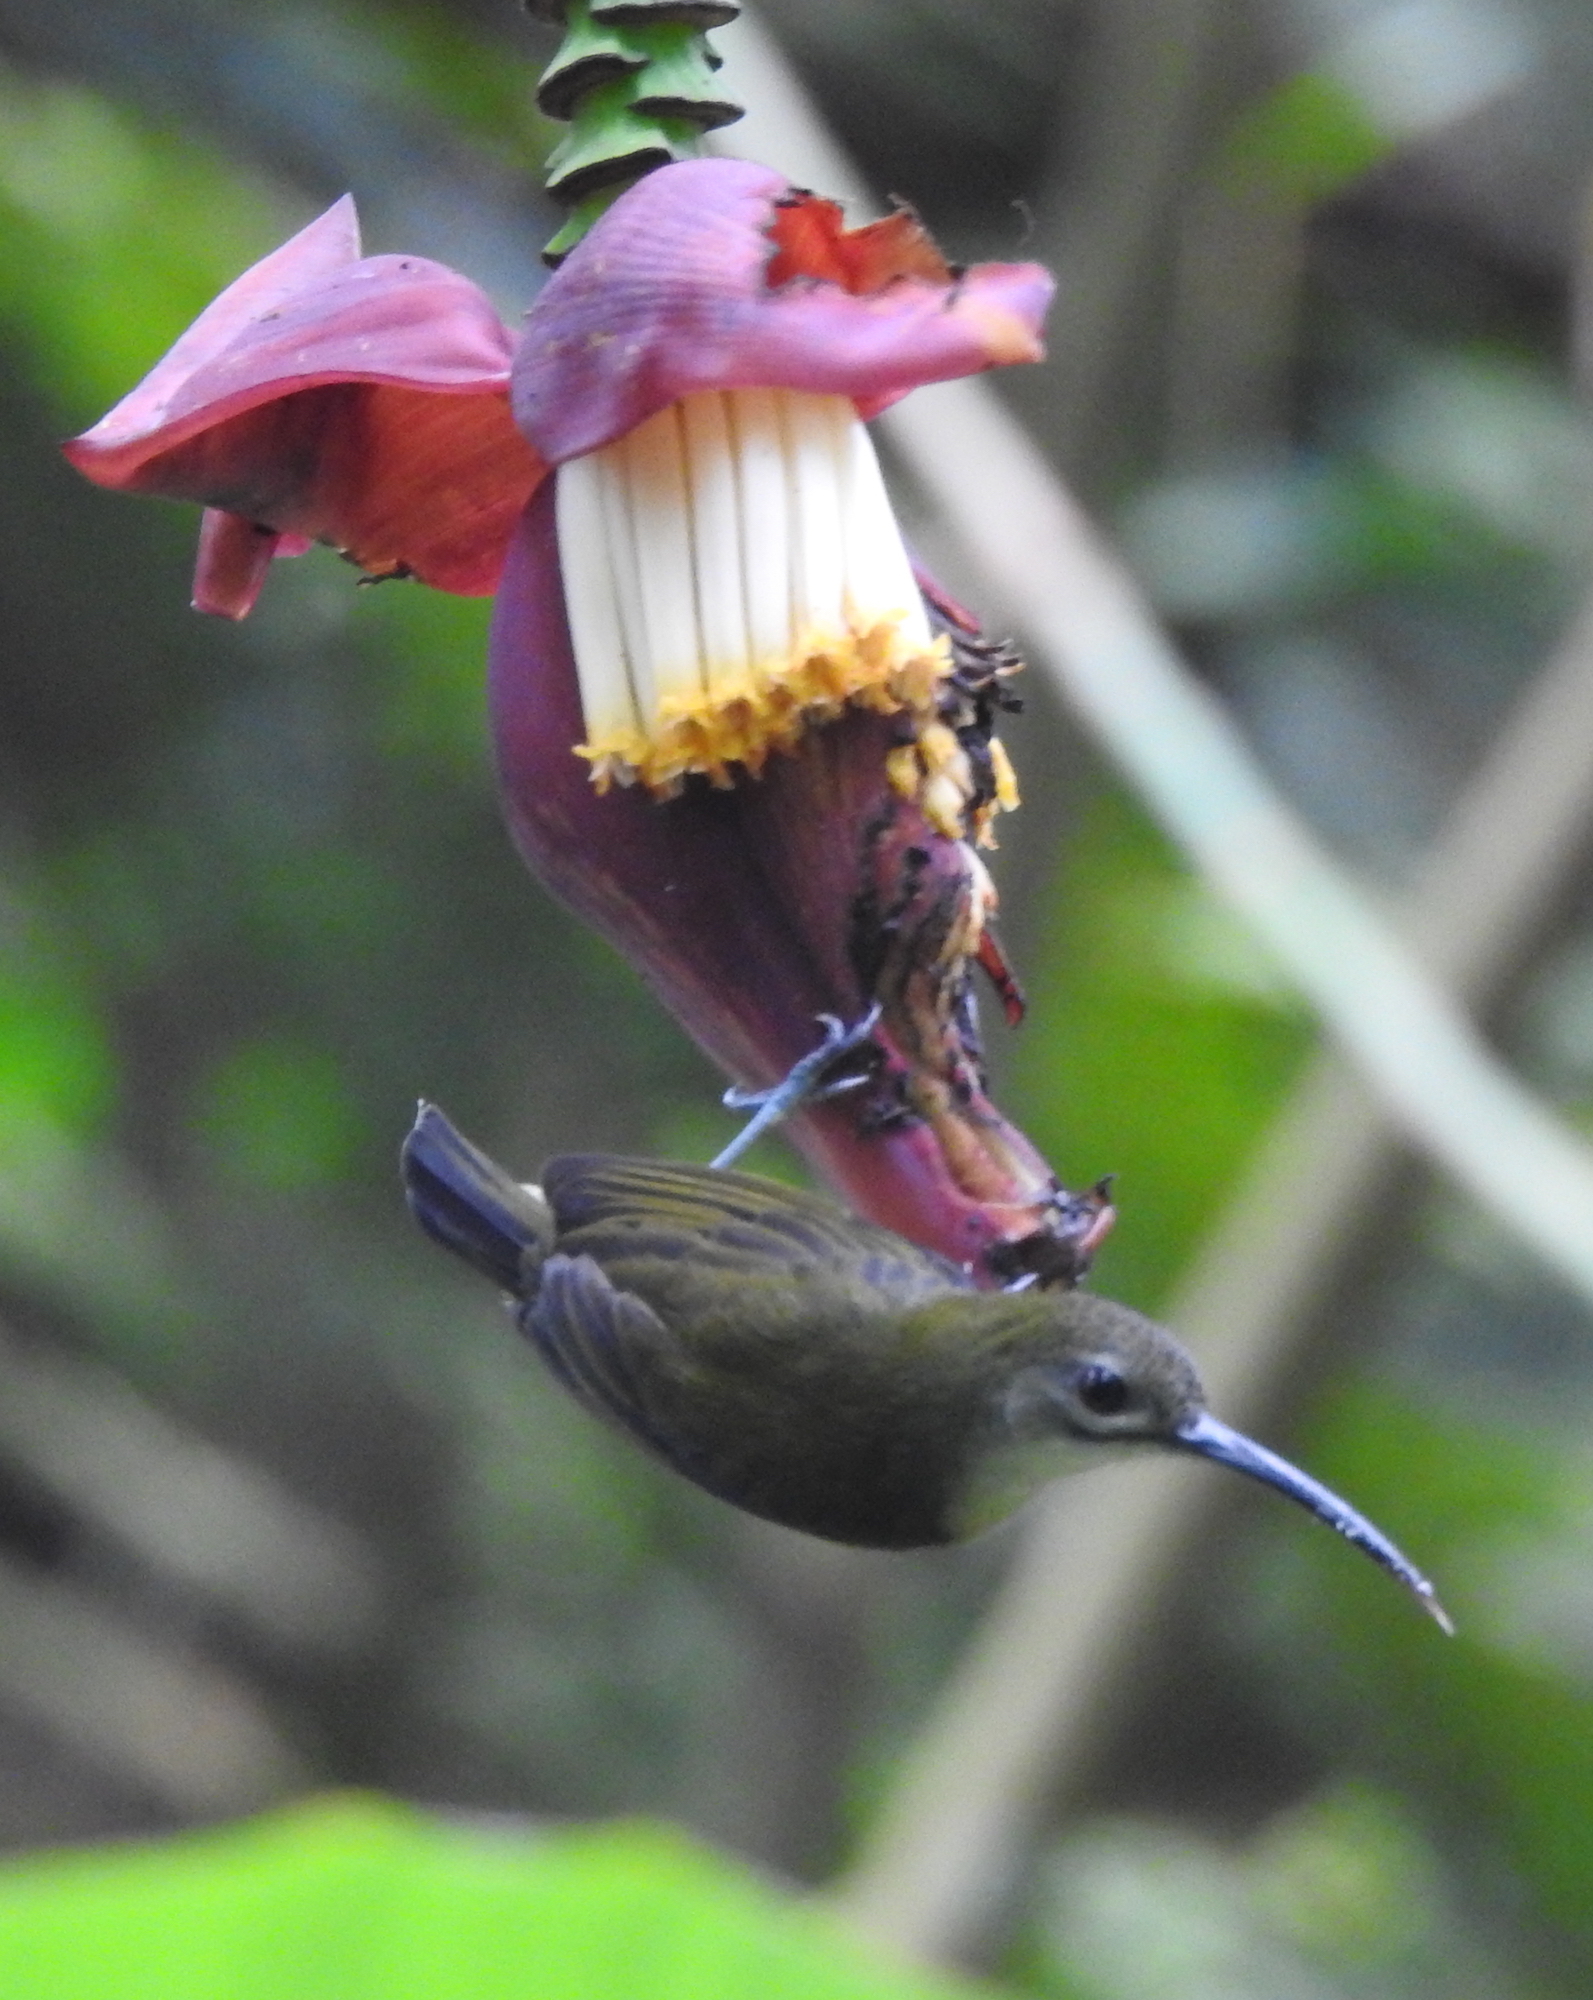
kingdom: Animalia
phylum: Chordata
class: Aves
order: Passeriformes
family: Nectariniidae
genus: Arachnothera
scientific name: Arachnothera longirostra
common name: Little spiderhunter
